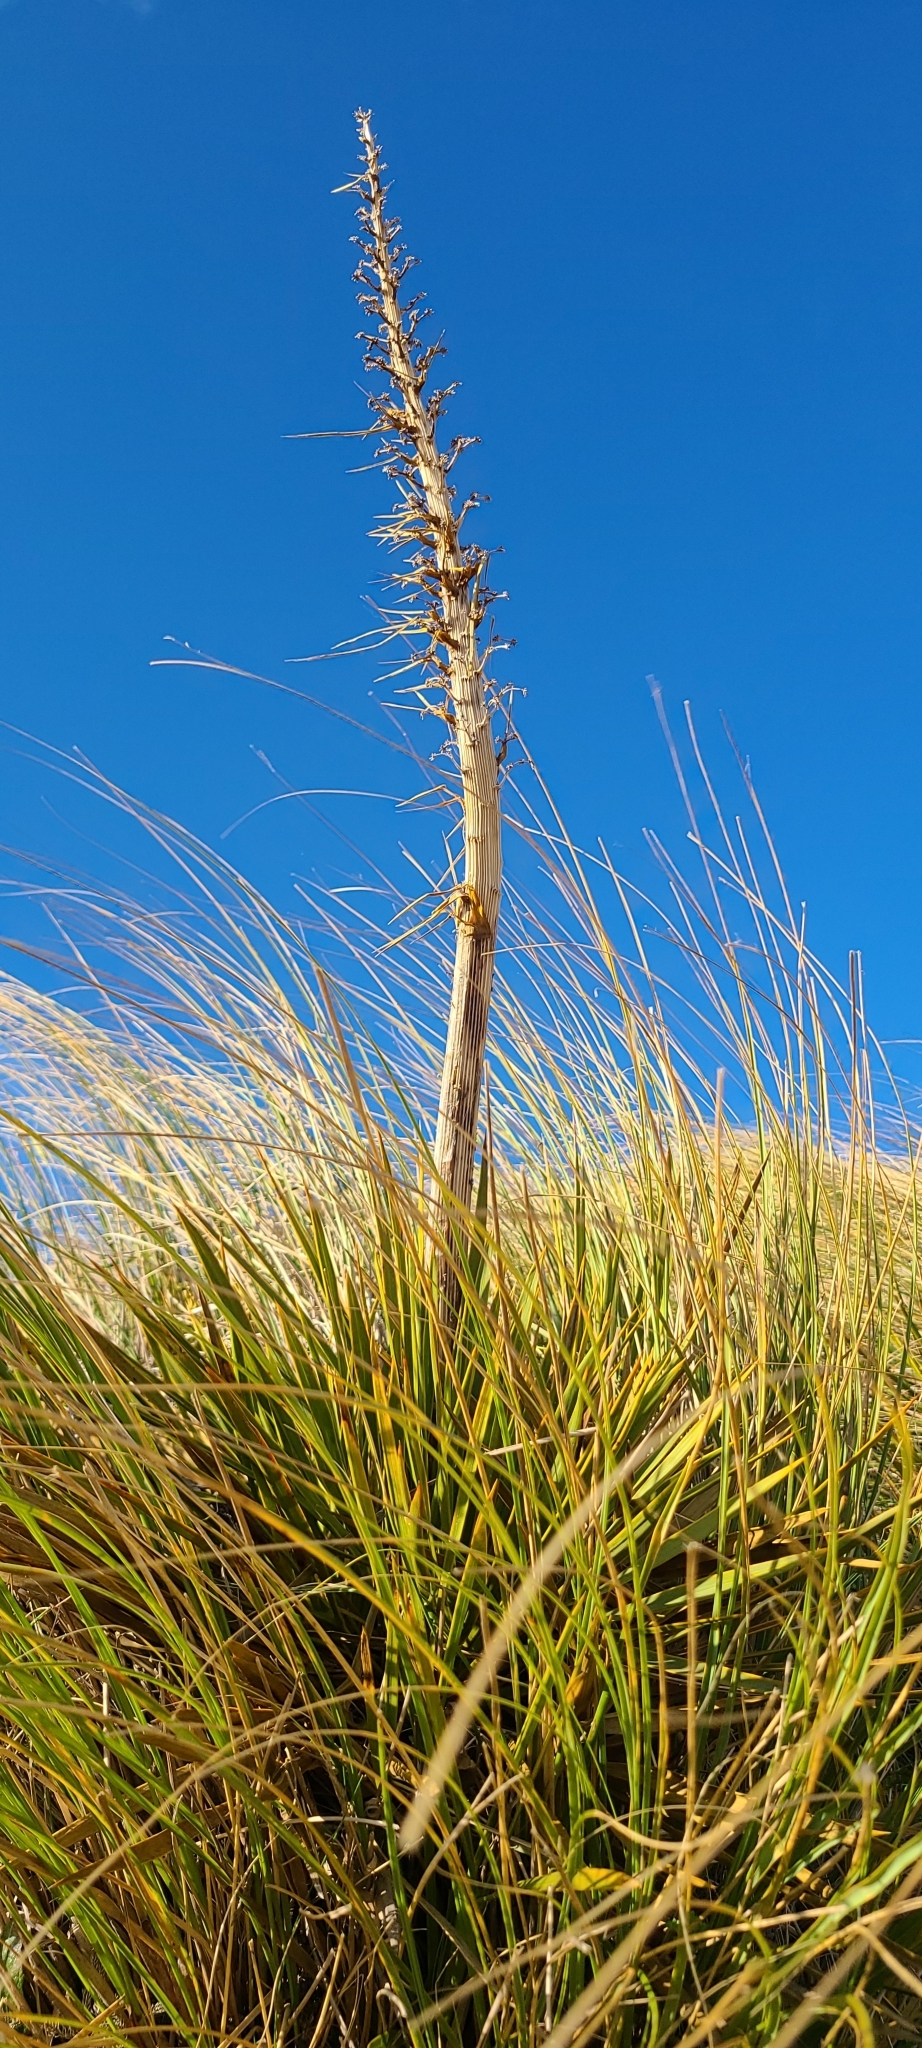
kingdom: Plantae
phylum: Tracheophyta
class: Magnoliopsida
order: Apiales
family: Apiaceae
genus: Aciphylla
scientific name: Aciphylla aurea
